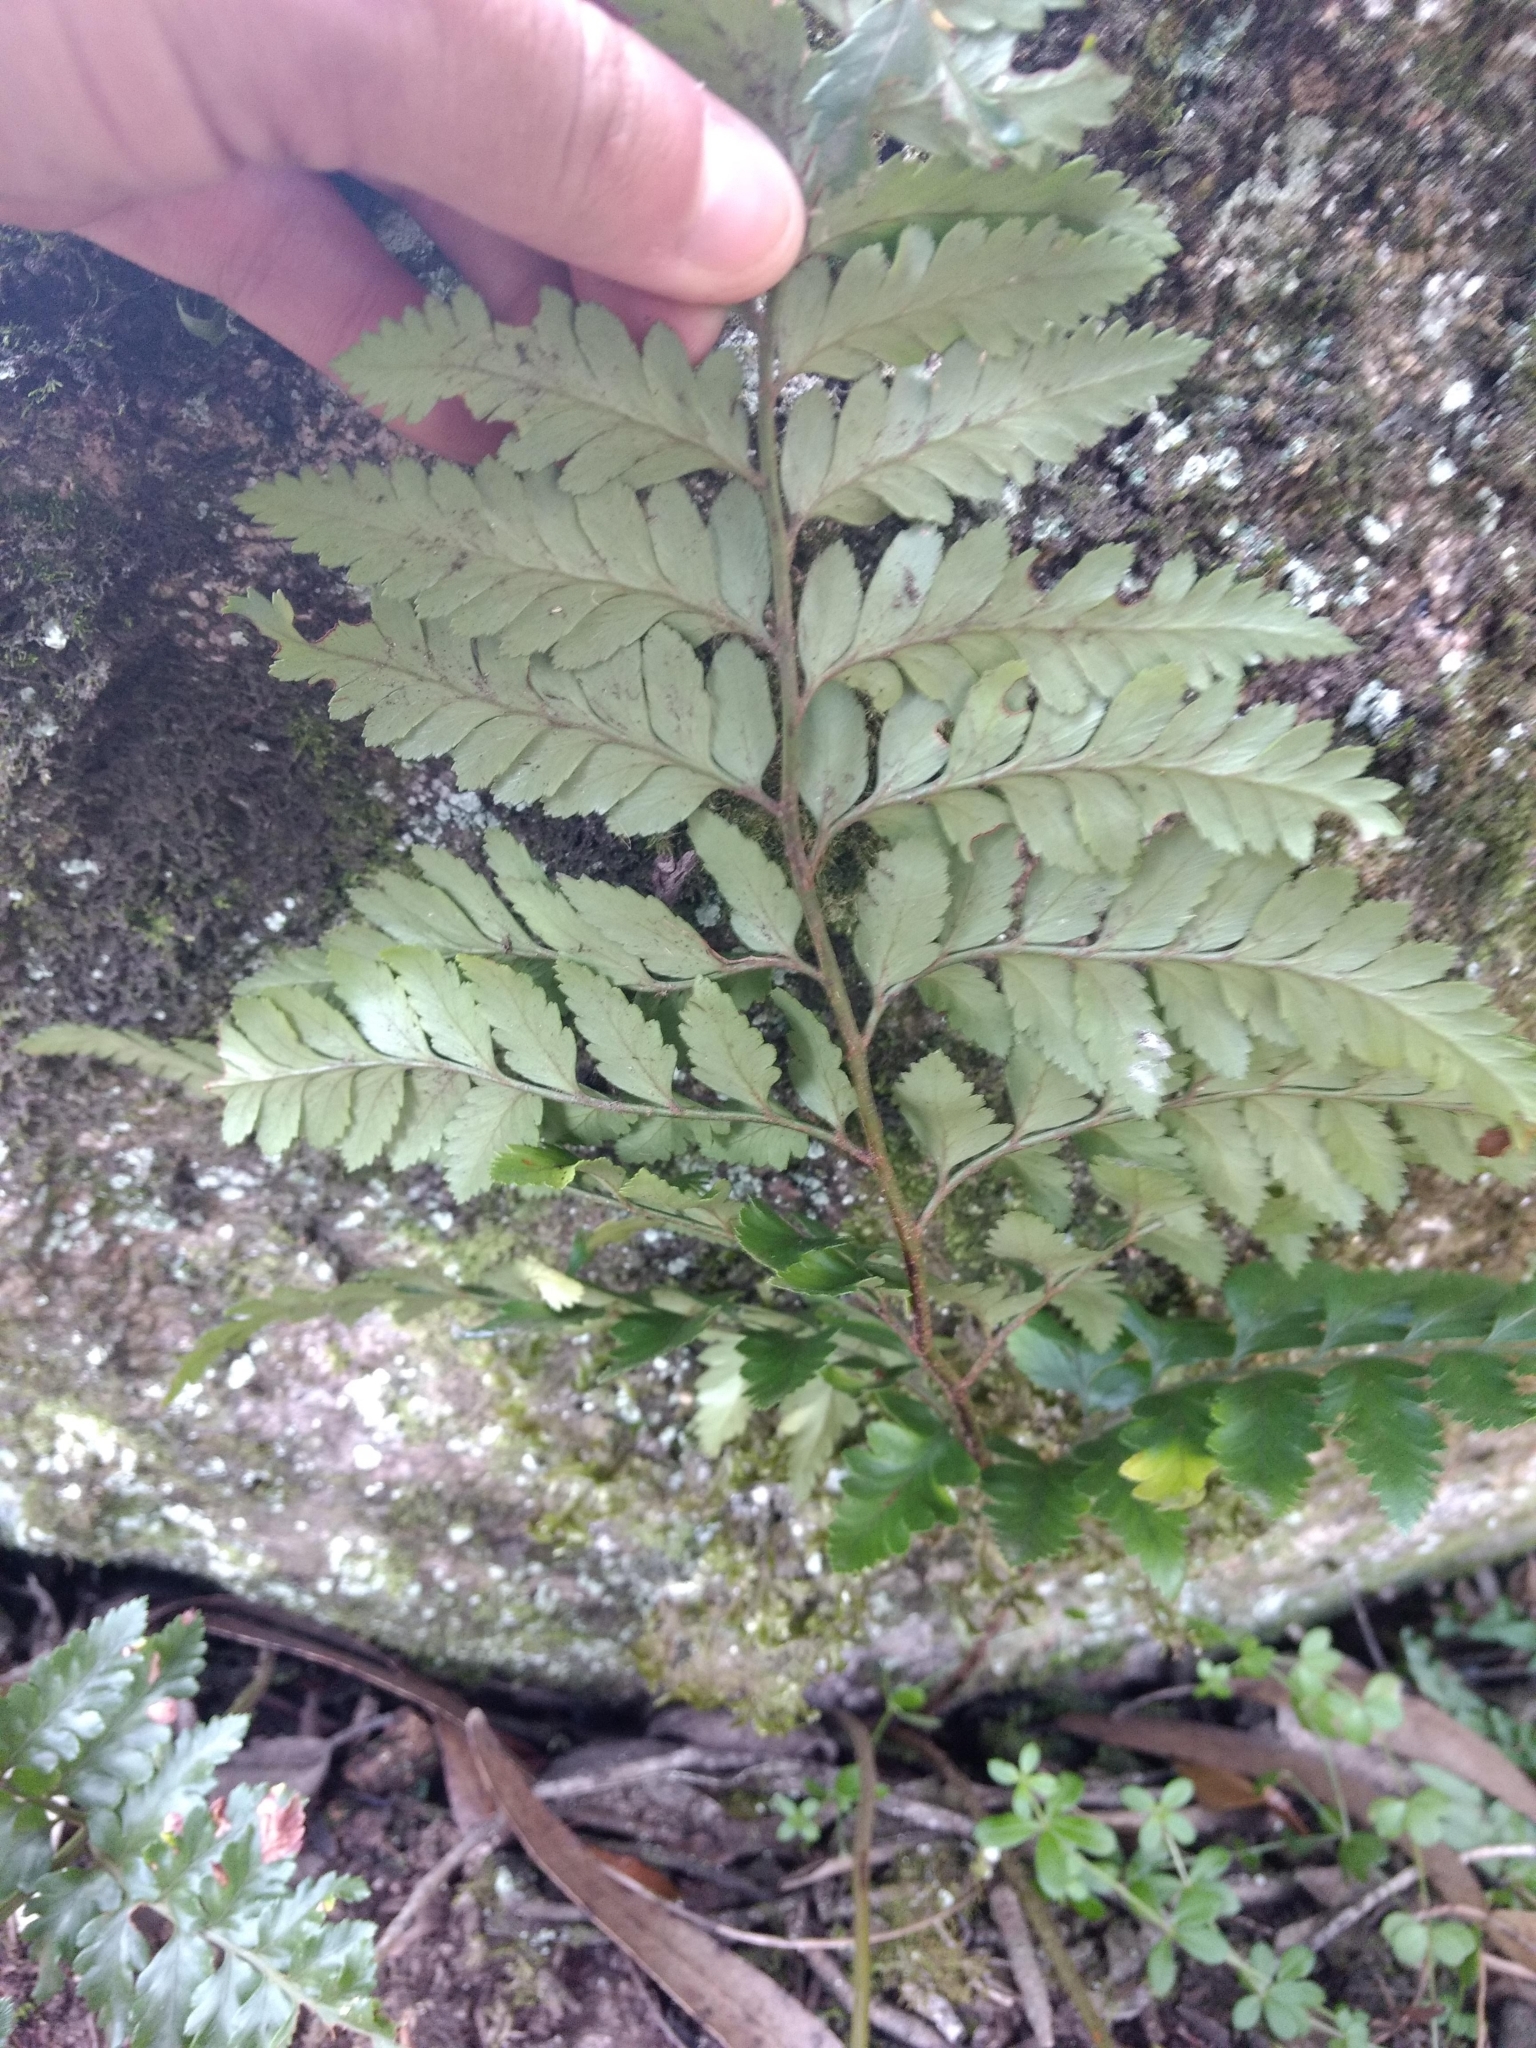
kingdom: Plantae
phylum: Tracheophyta
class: Polypodiopsida
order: Polypodiales
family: Dryopteridaceae
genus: Rumohra
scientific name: Rumohra adiantiformis
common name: Leather fern
